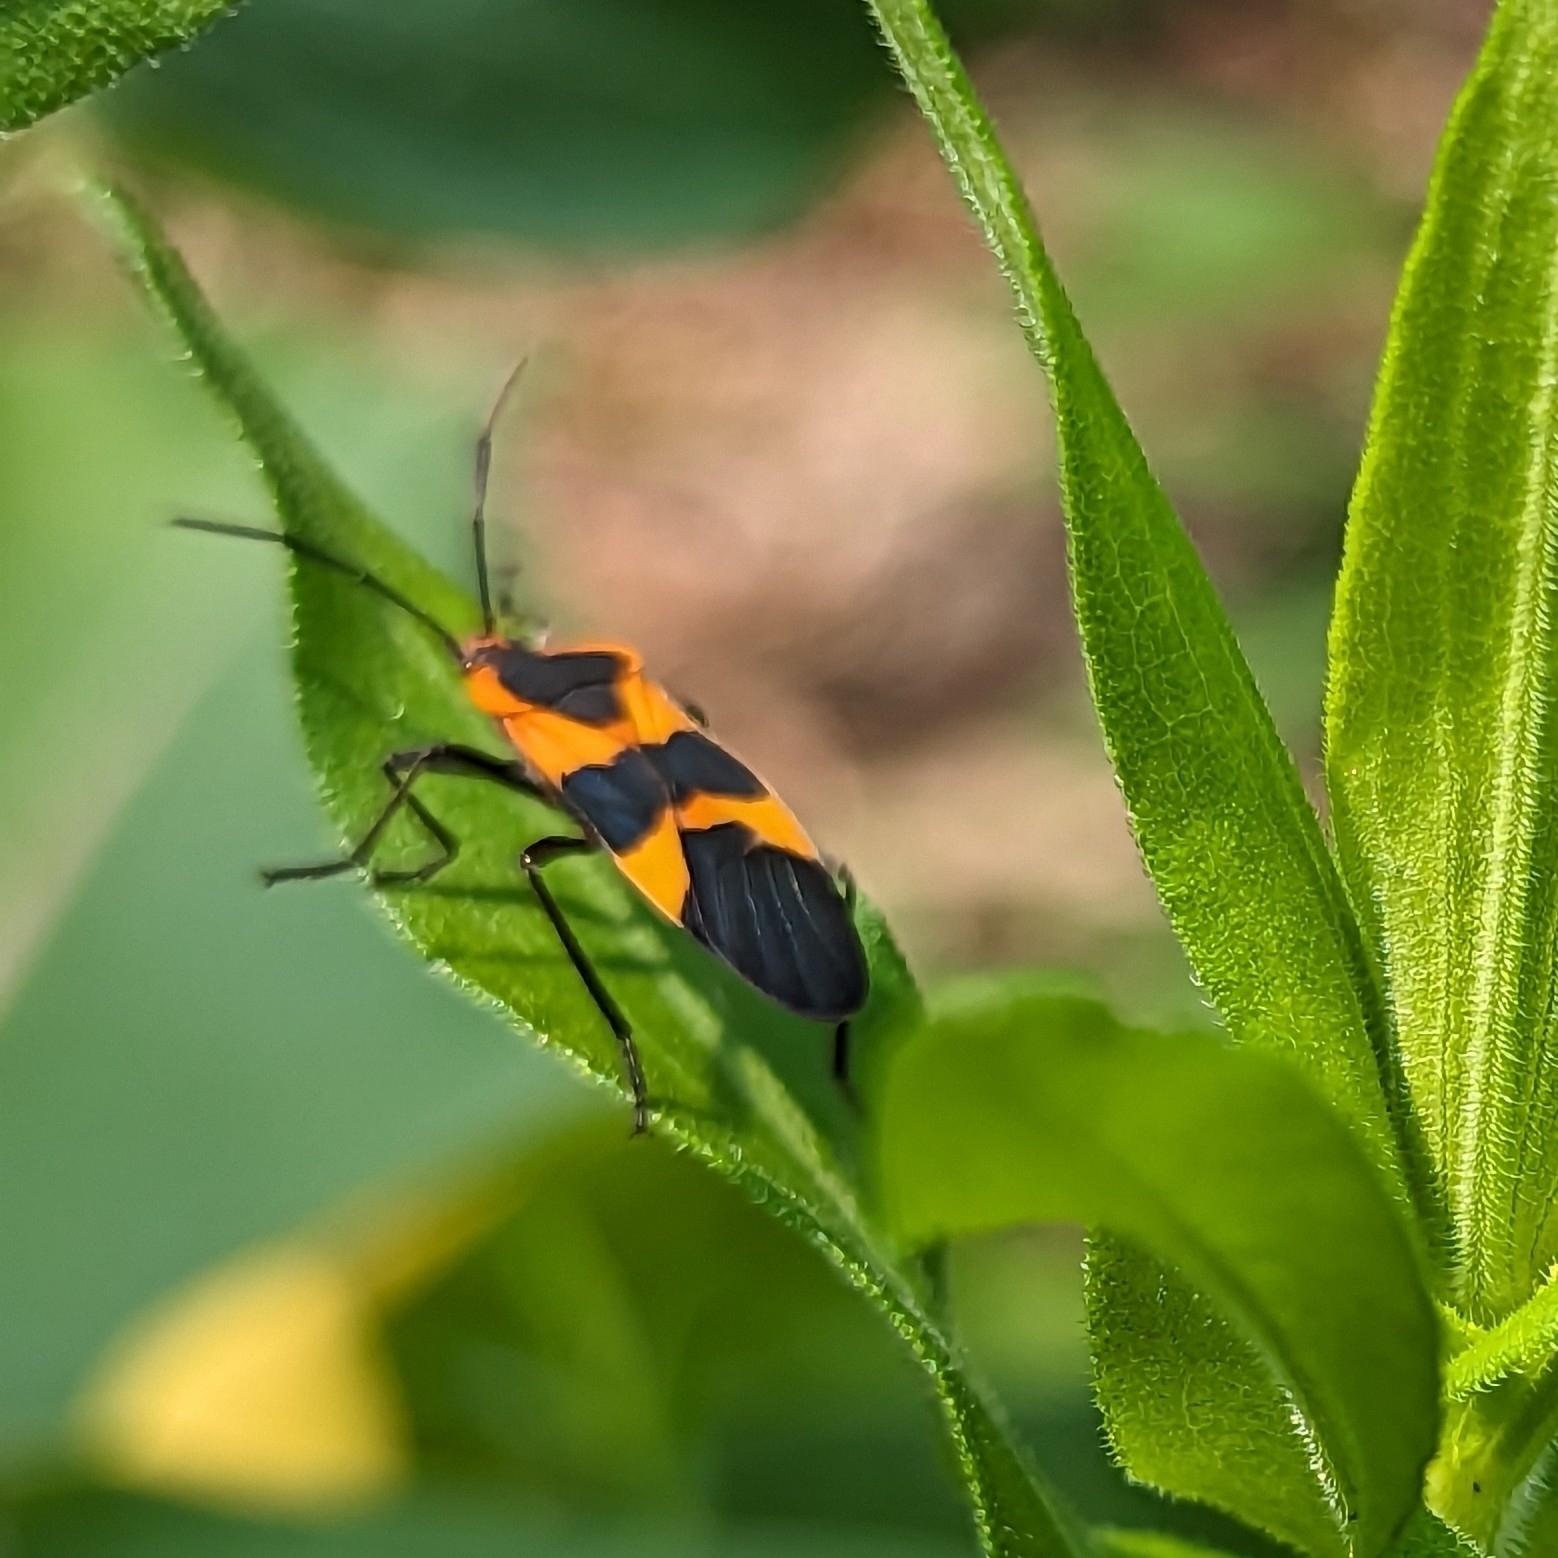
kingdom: Animalia
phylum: Arthropoda
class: Insecta
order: Hemiptera
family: Lygaeidae
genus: Oncopeltus
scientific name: Oncopeltus fasciatus
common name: Large milkweed bug
